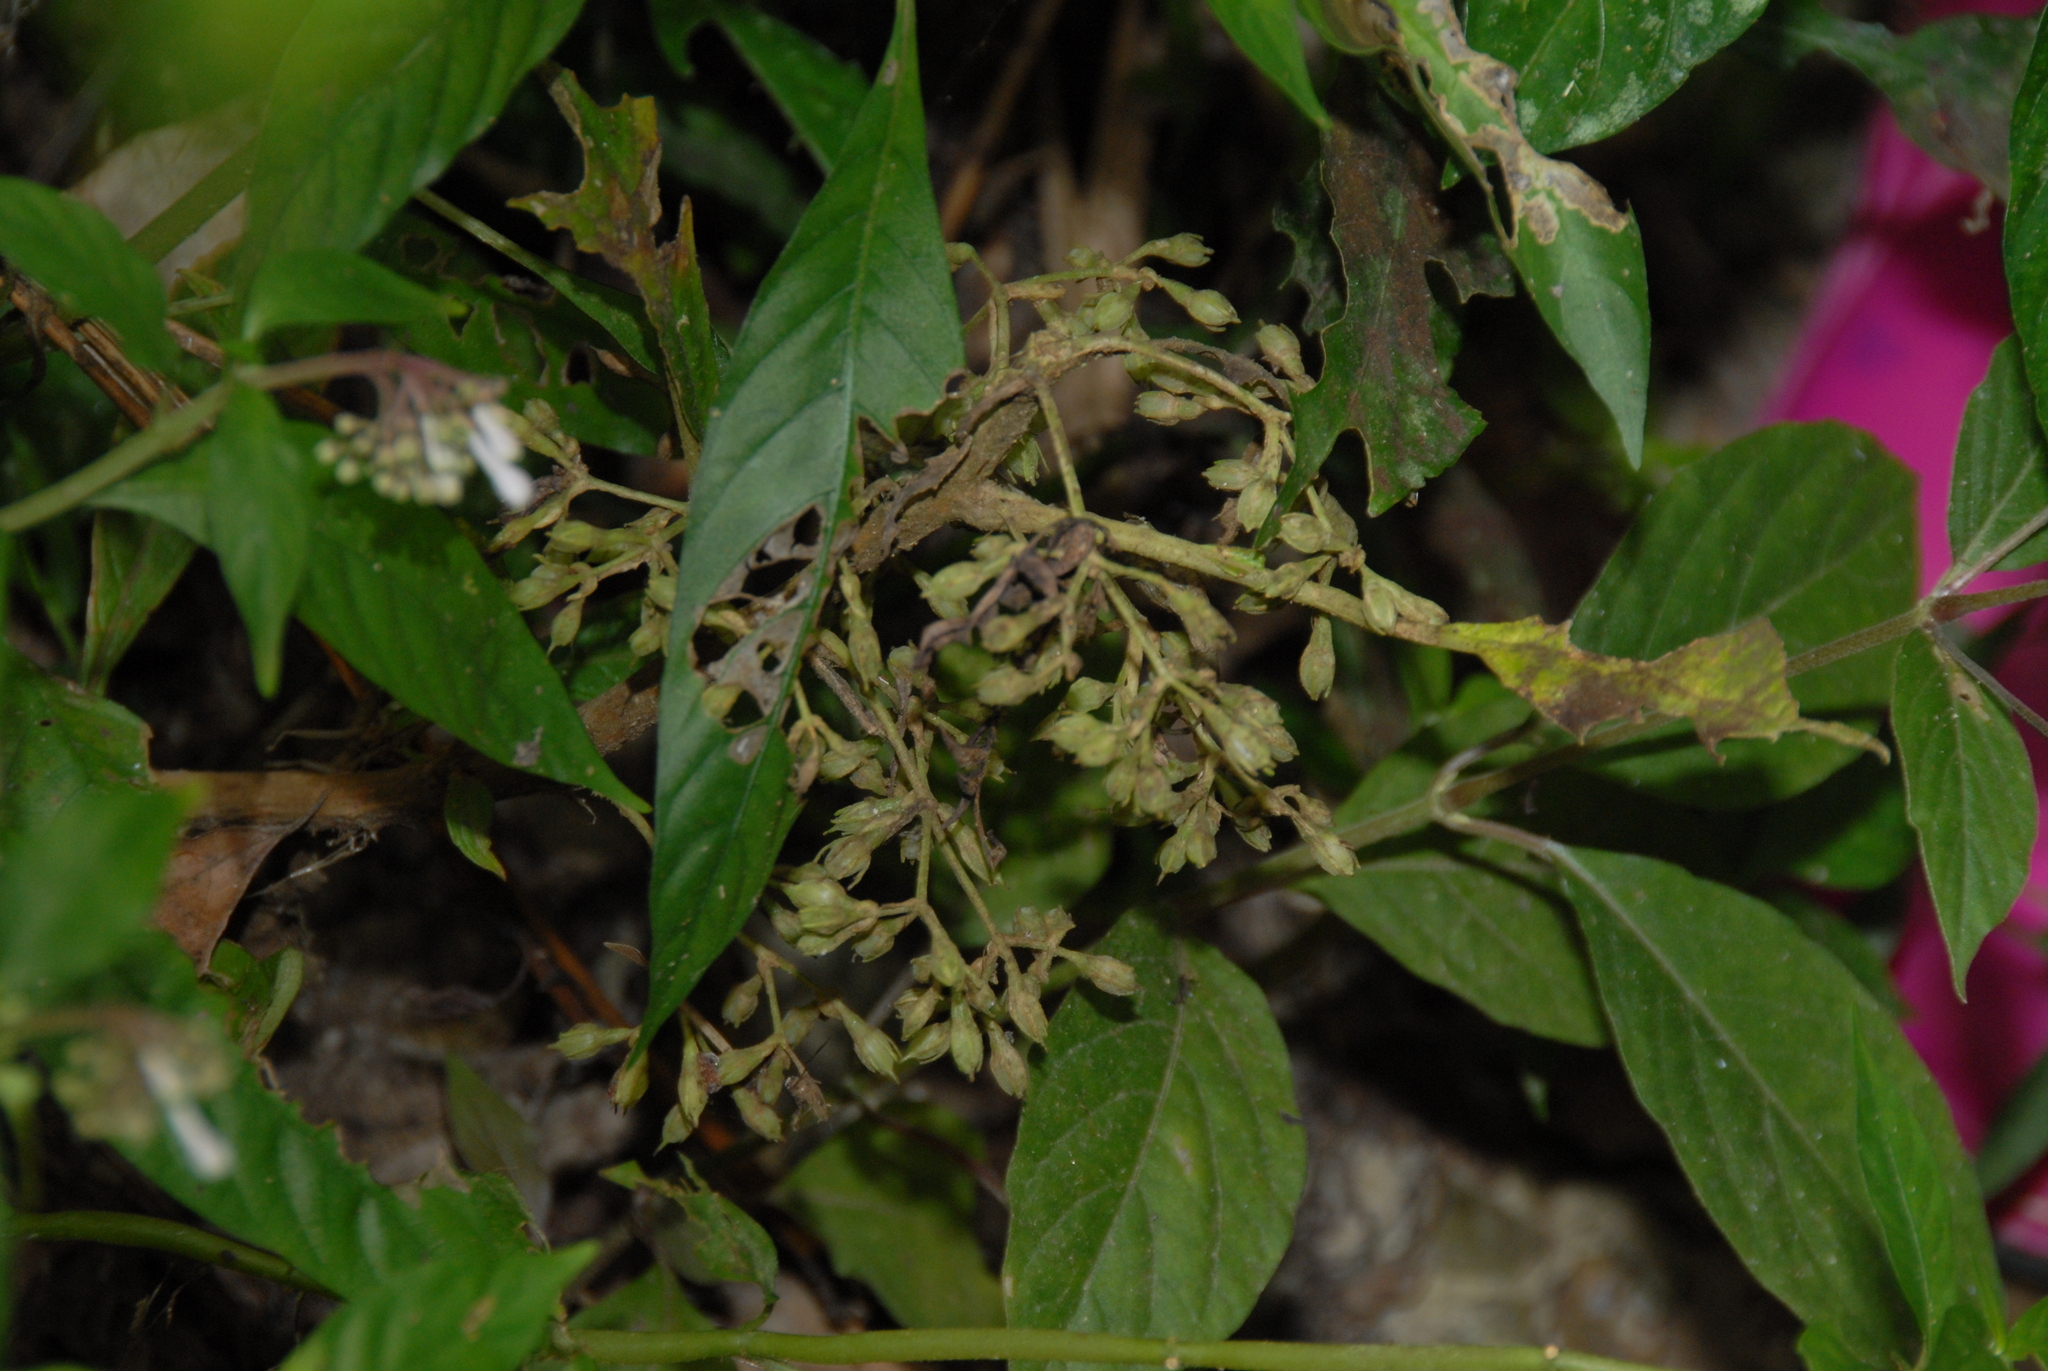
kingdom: Plantae
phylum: Tracheophyta
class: Magnoliopsida
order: Lamiales
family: Gesneriaceae
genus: Rhynchotechum
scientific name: Rhynchotechum discolor
